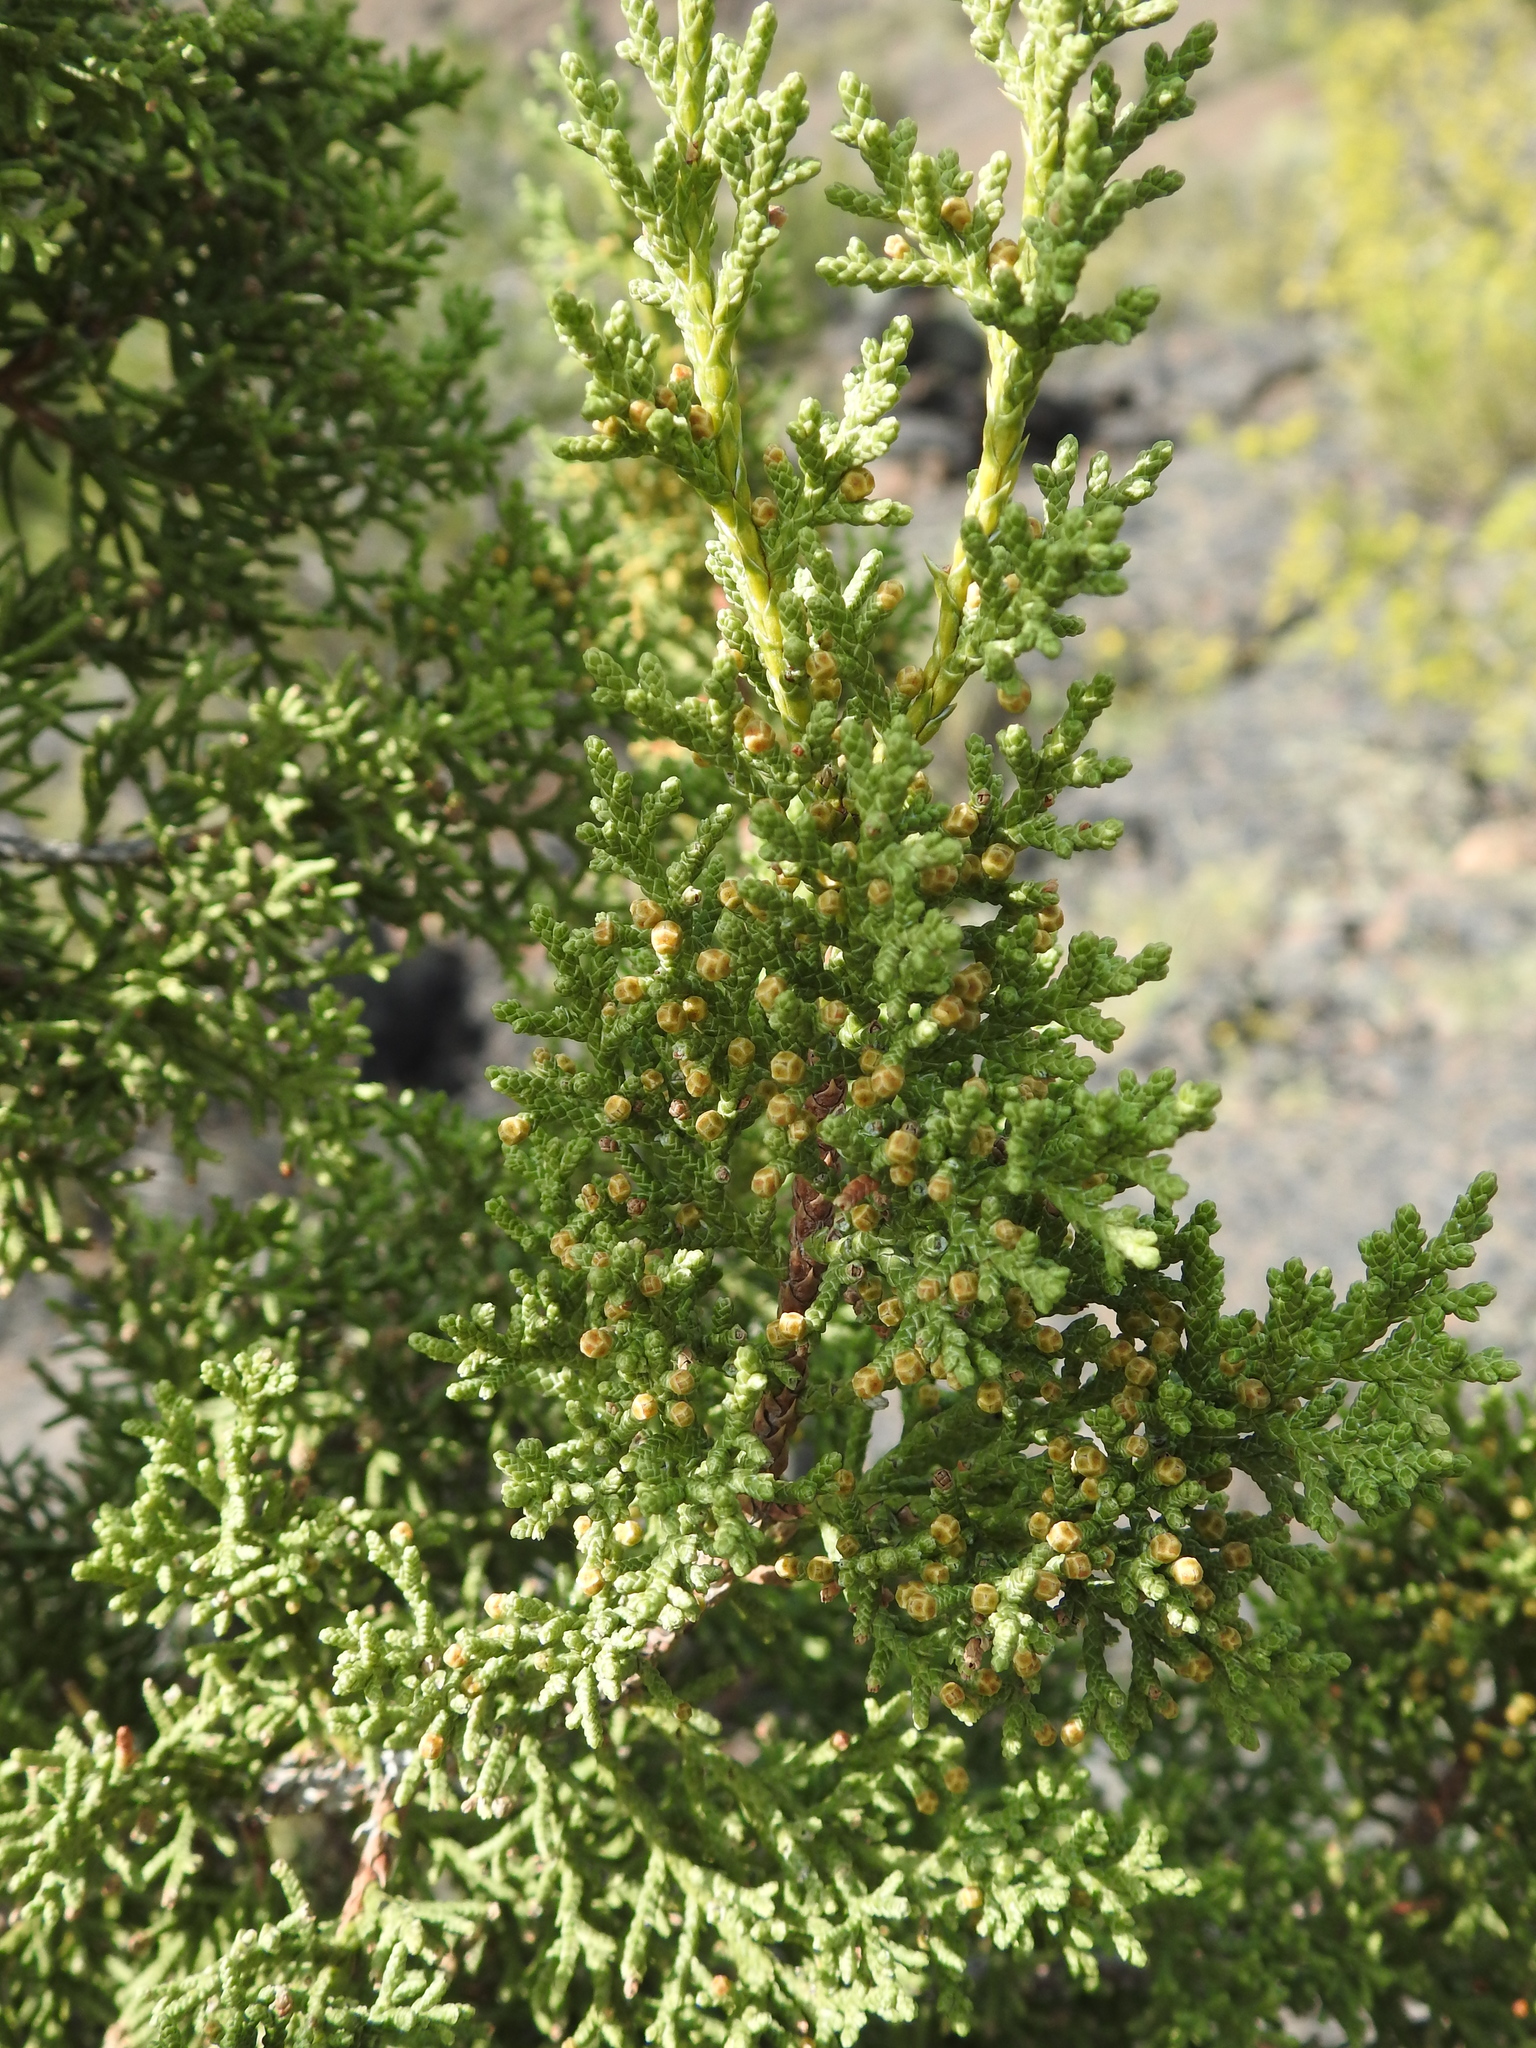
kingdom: Plantae
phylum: Tracheophyta
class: Pinopsida
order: Pinales
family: Pinaceae
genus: Pinus
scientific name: Pinus ponderosa
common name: Western yellow-pine
